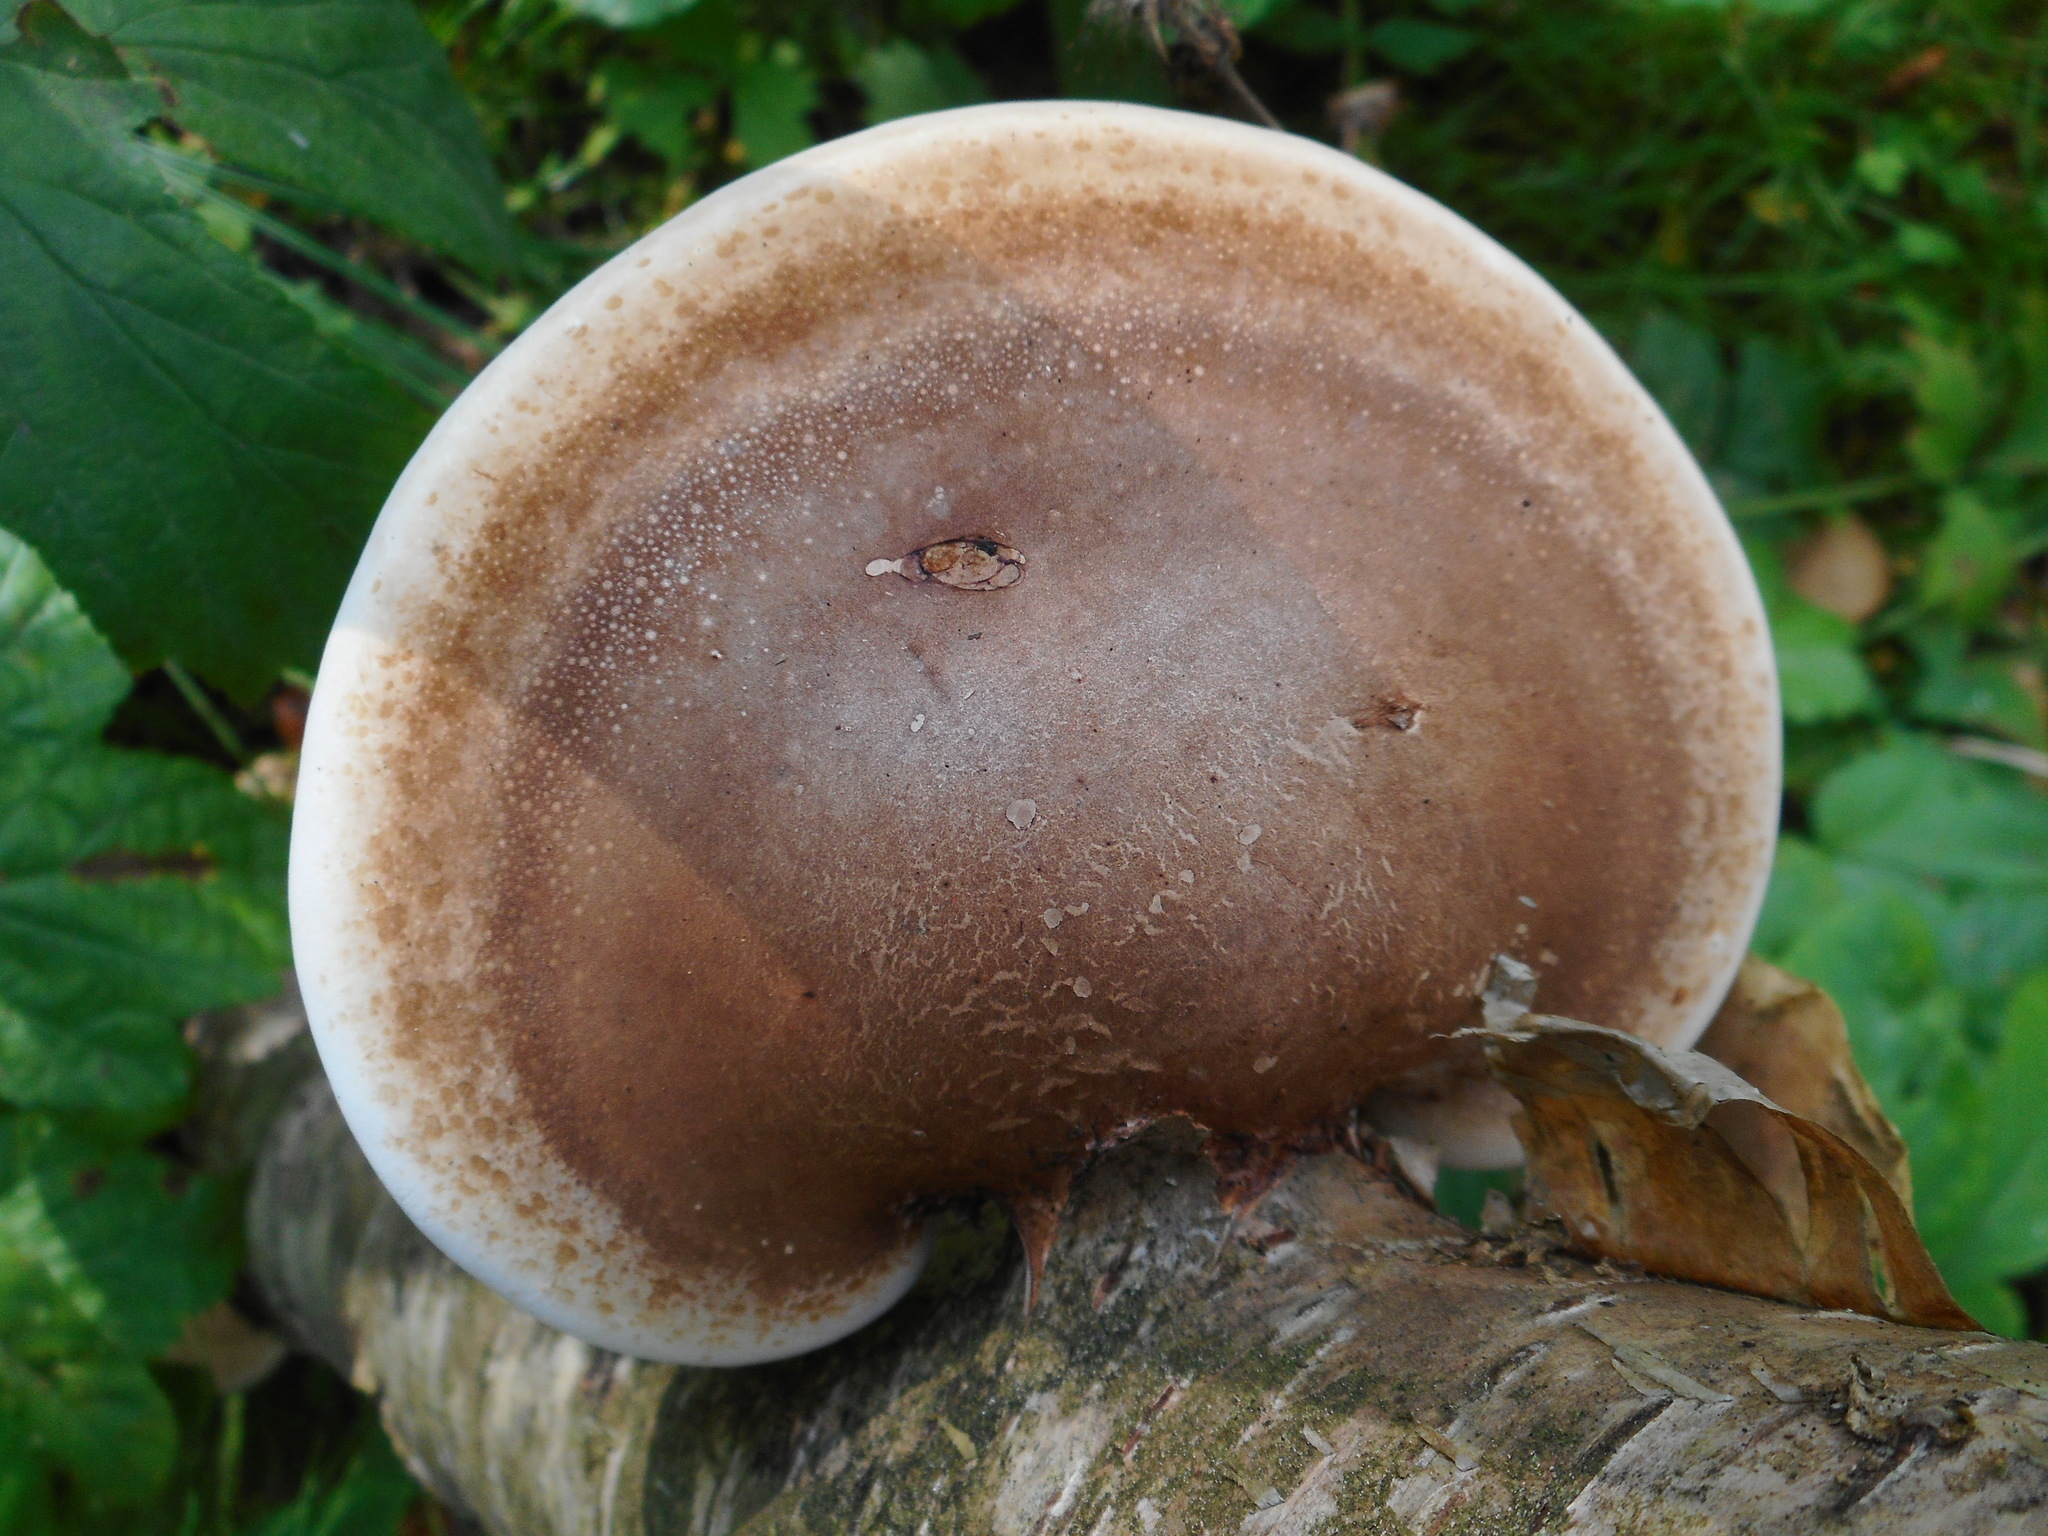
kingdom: Fungi
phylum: Basidiomycota
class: Agaricomycetes
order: Polyporales
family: Fomitopsidaceae
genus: Fomitopsis
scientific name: Fomitopsis betulina
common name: Birch polypore
